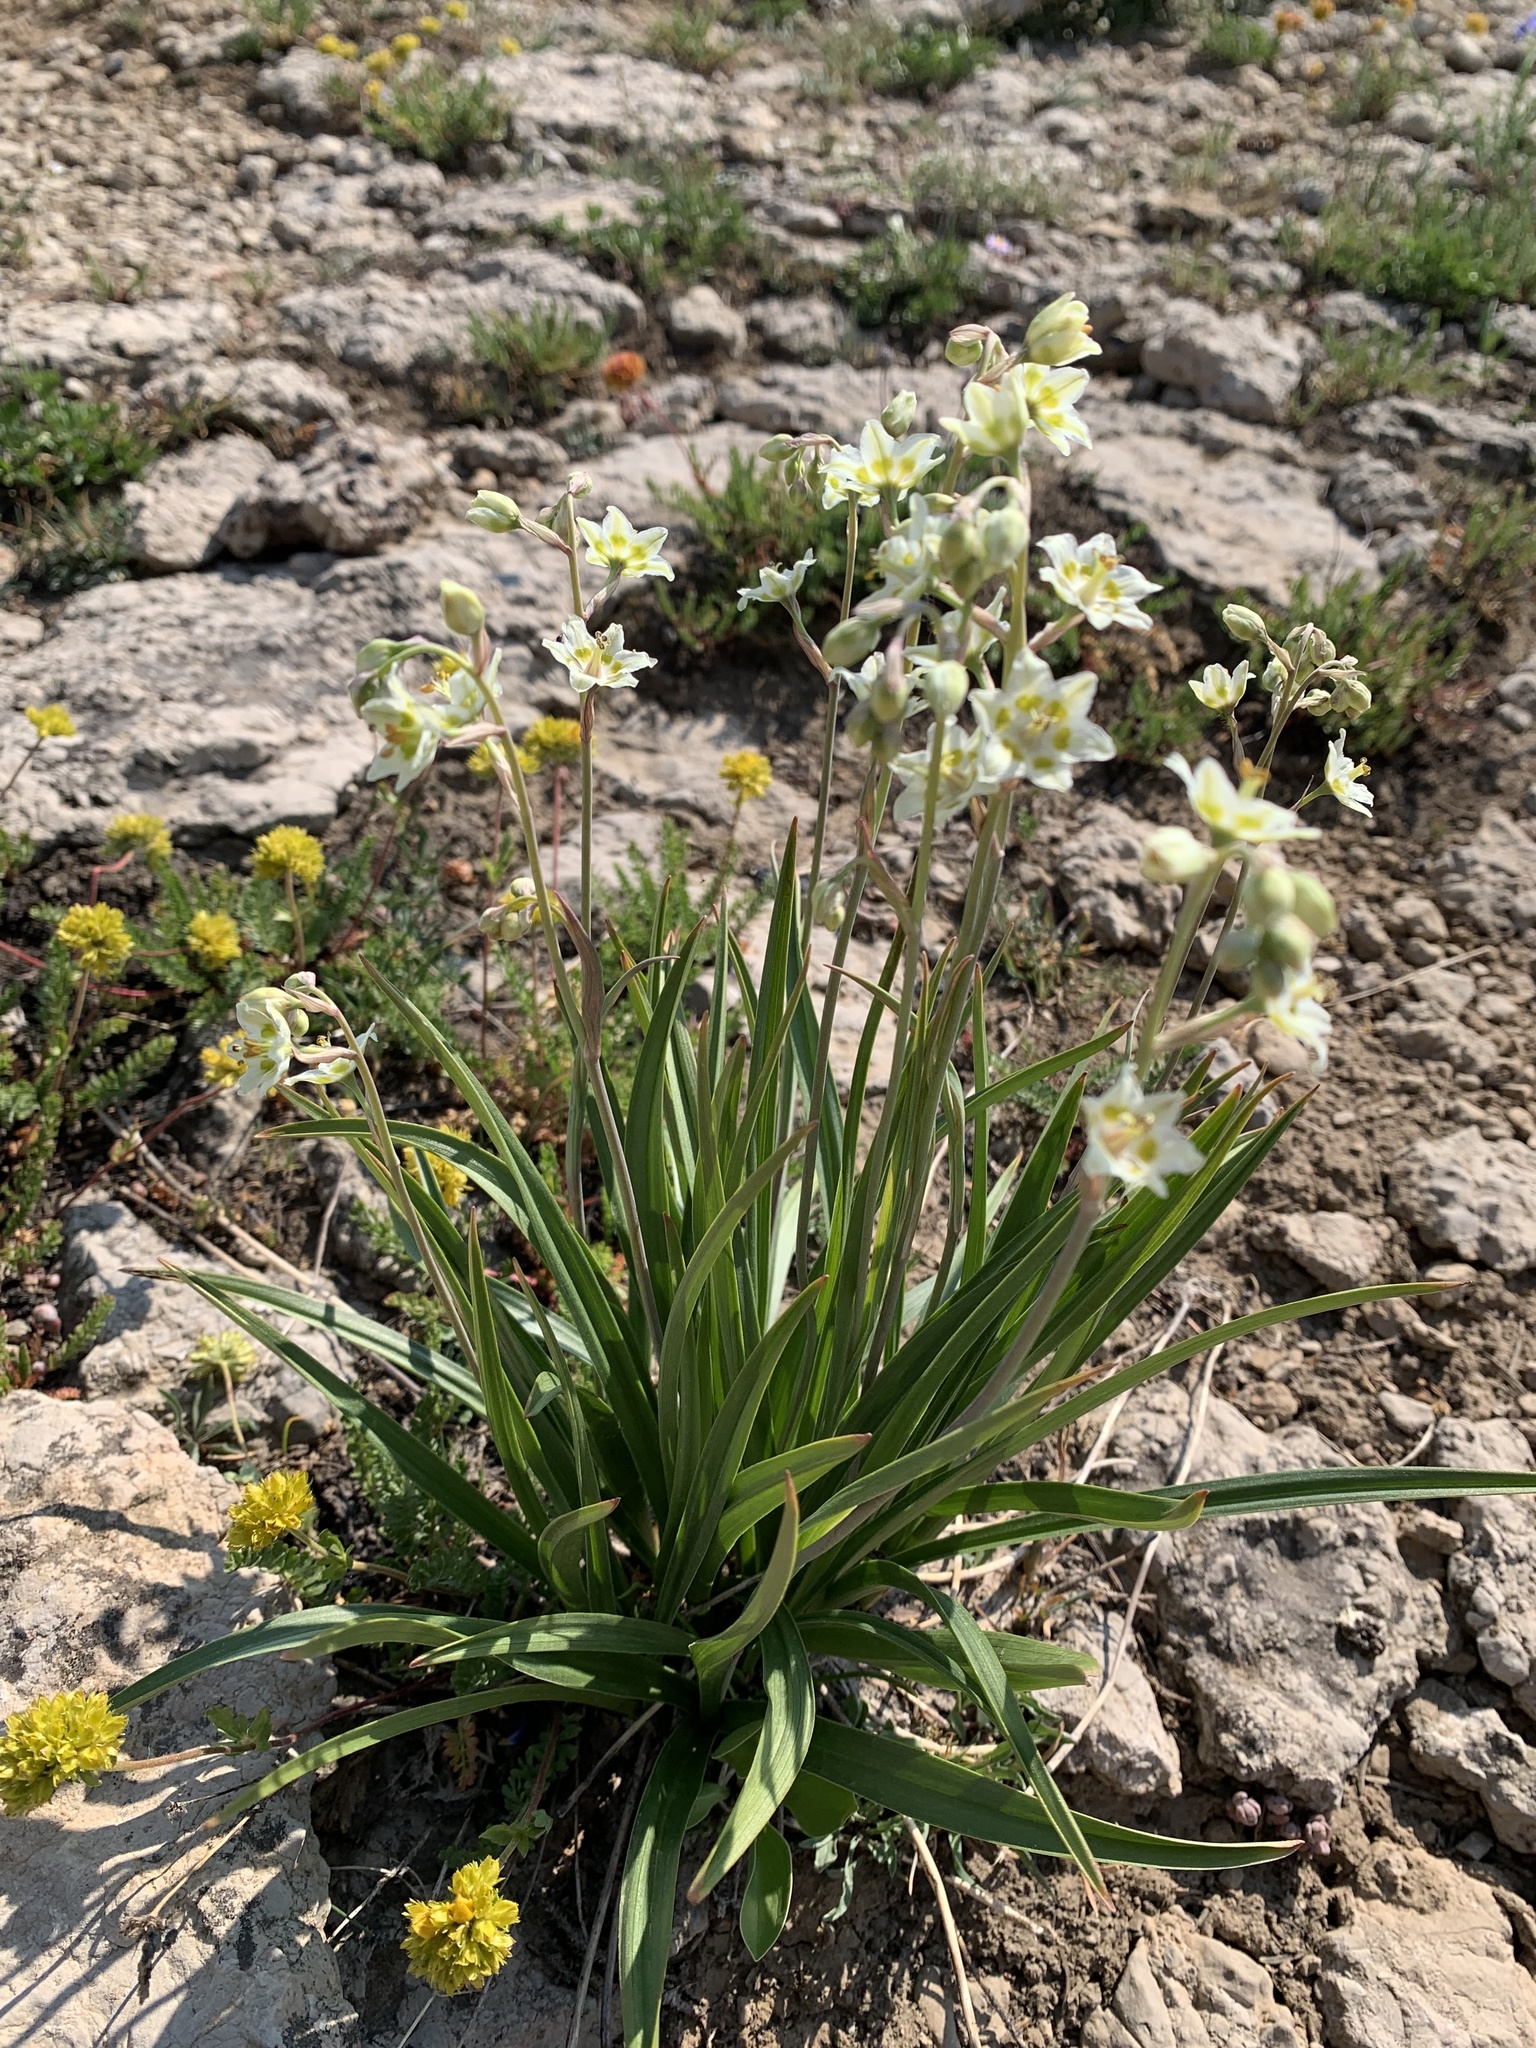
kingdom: Plantae
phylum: Tracheophyta
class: Liliopsida
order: Liliales
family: Melanthiaceae
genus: Anticlea
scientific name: Anticlea elegans
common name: Mountain death camas
